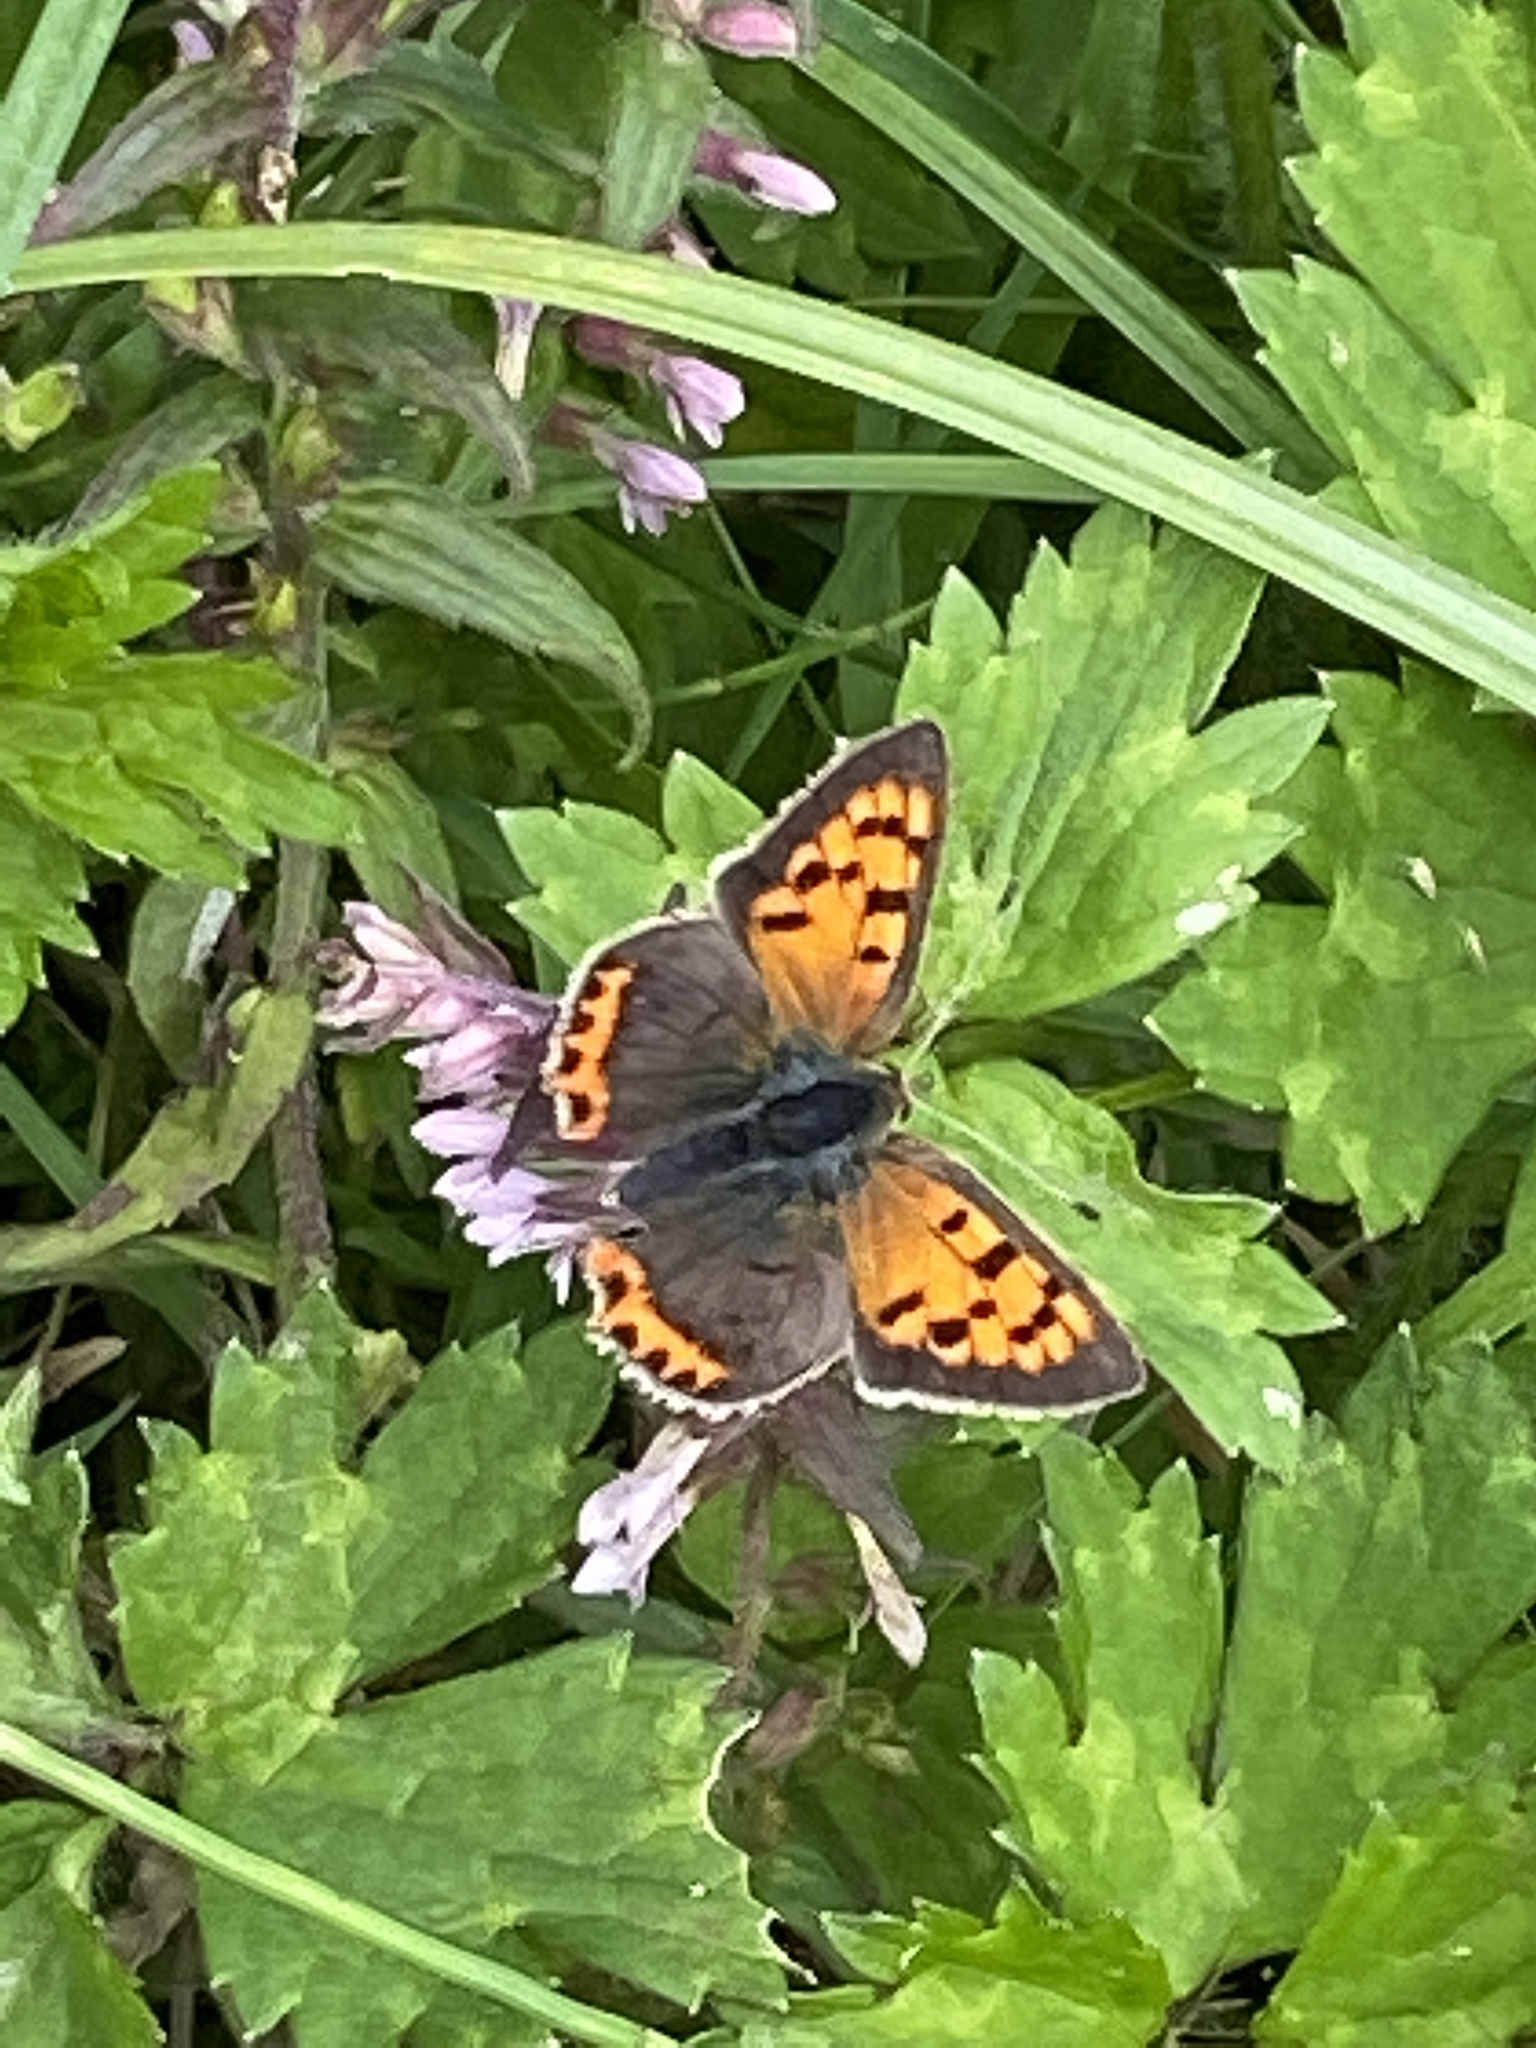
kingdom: Animalia
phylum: Arthropoda
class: Insecta
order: Lepidoptera
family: Lycaenidae
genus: Lycaena
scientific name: Lycaena phlaeas
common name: Small copper
